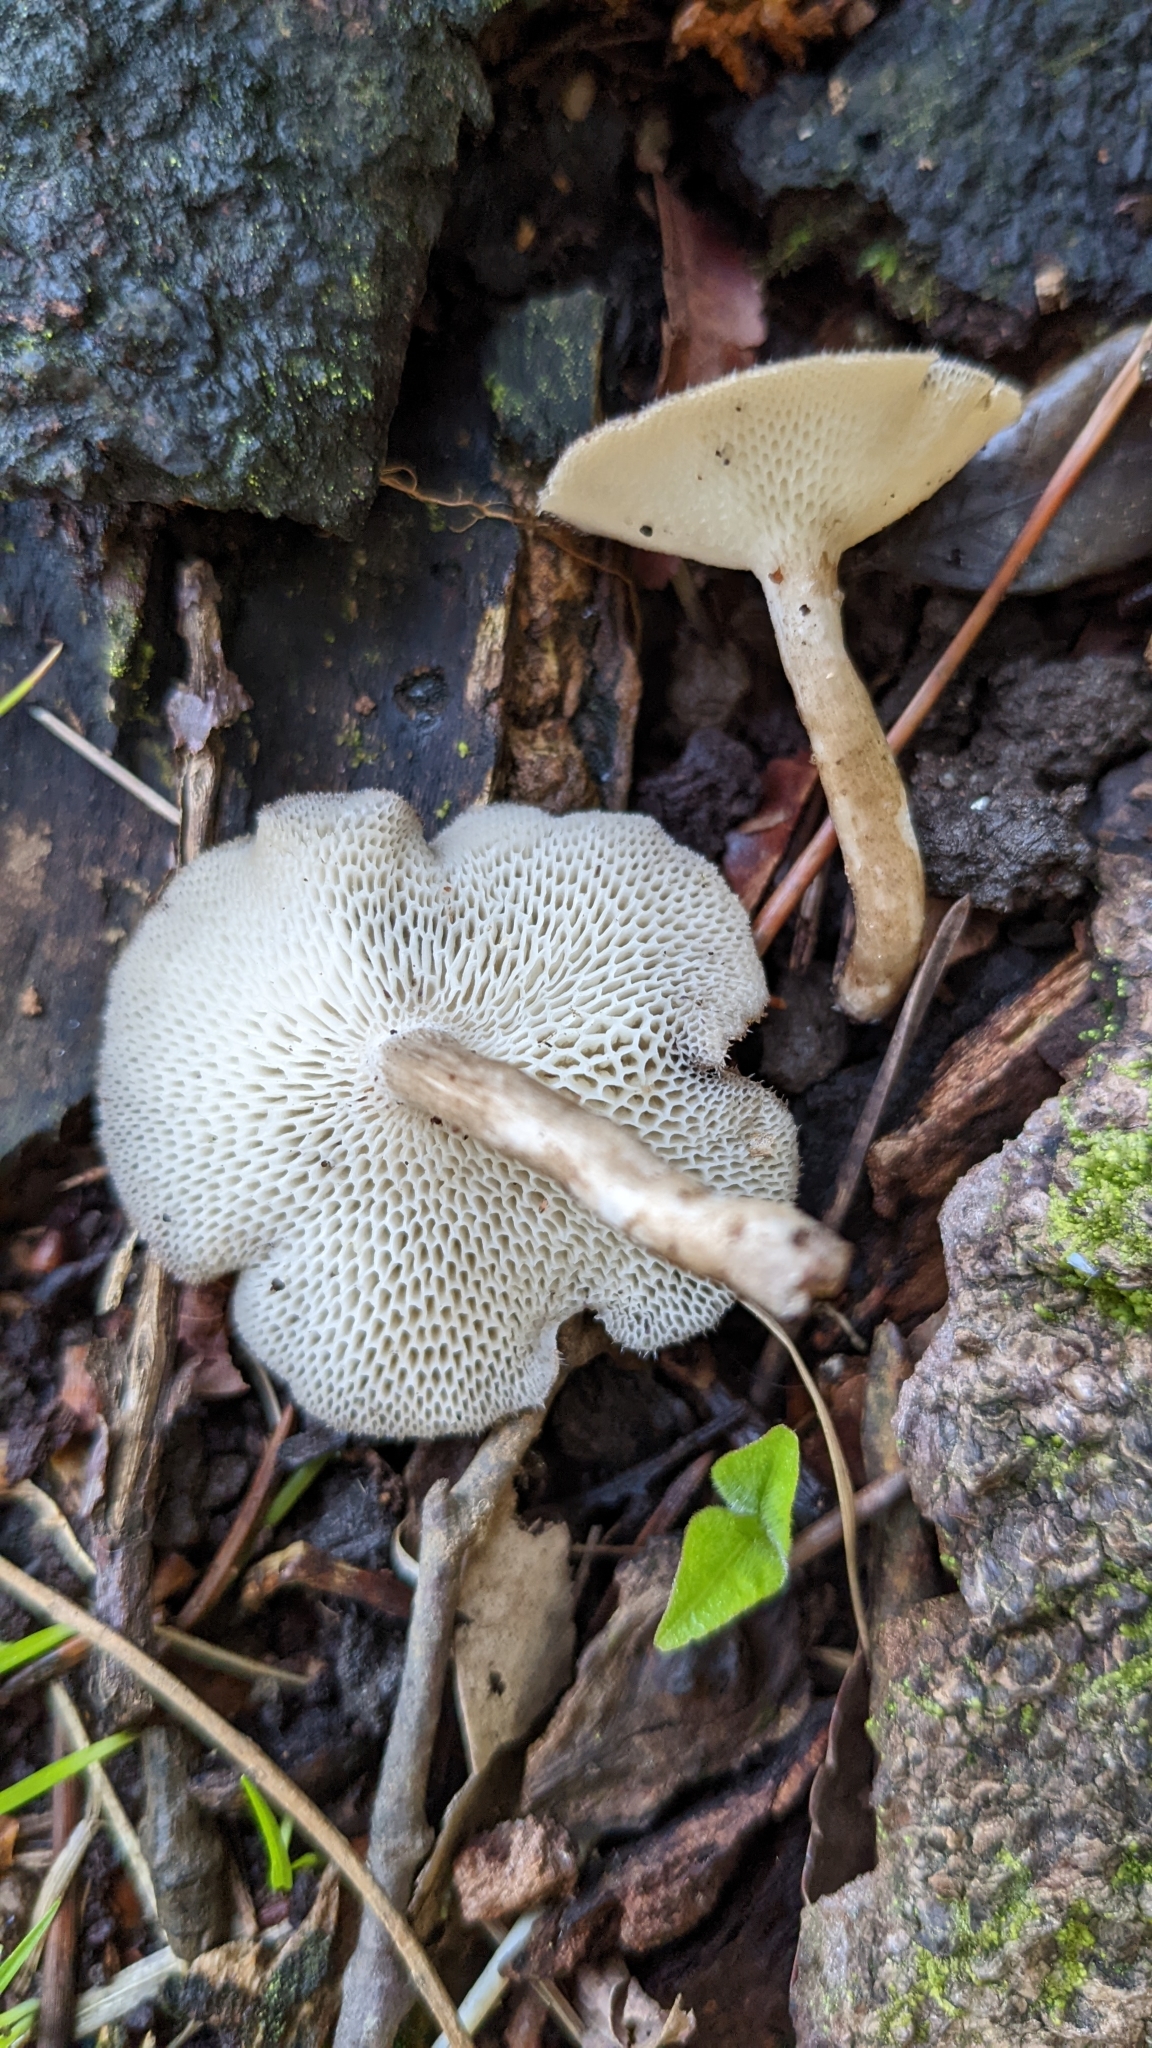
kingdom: Fungi
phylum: Basidiomycota
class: Agaricomycetes
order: Polyporales
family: Polyporaceae
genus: Lentinus
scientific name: Lentinus arcularius
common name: Spring polypore
